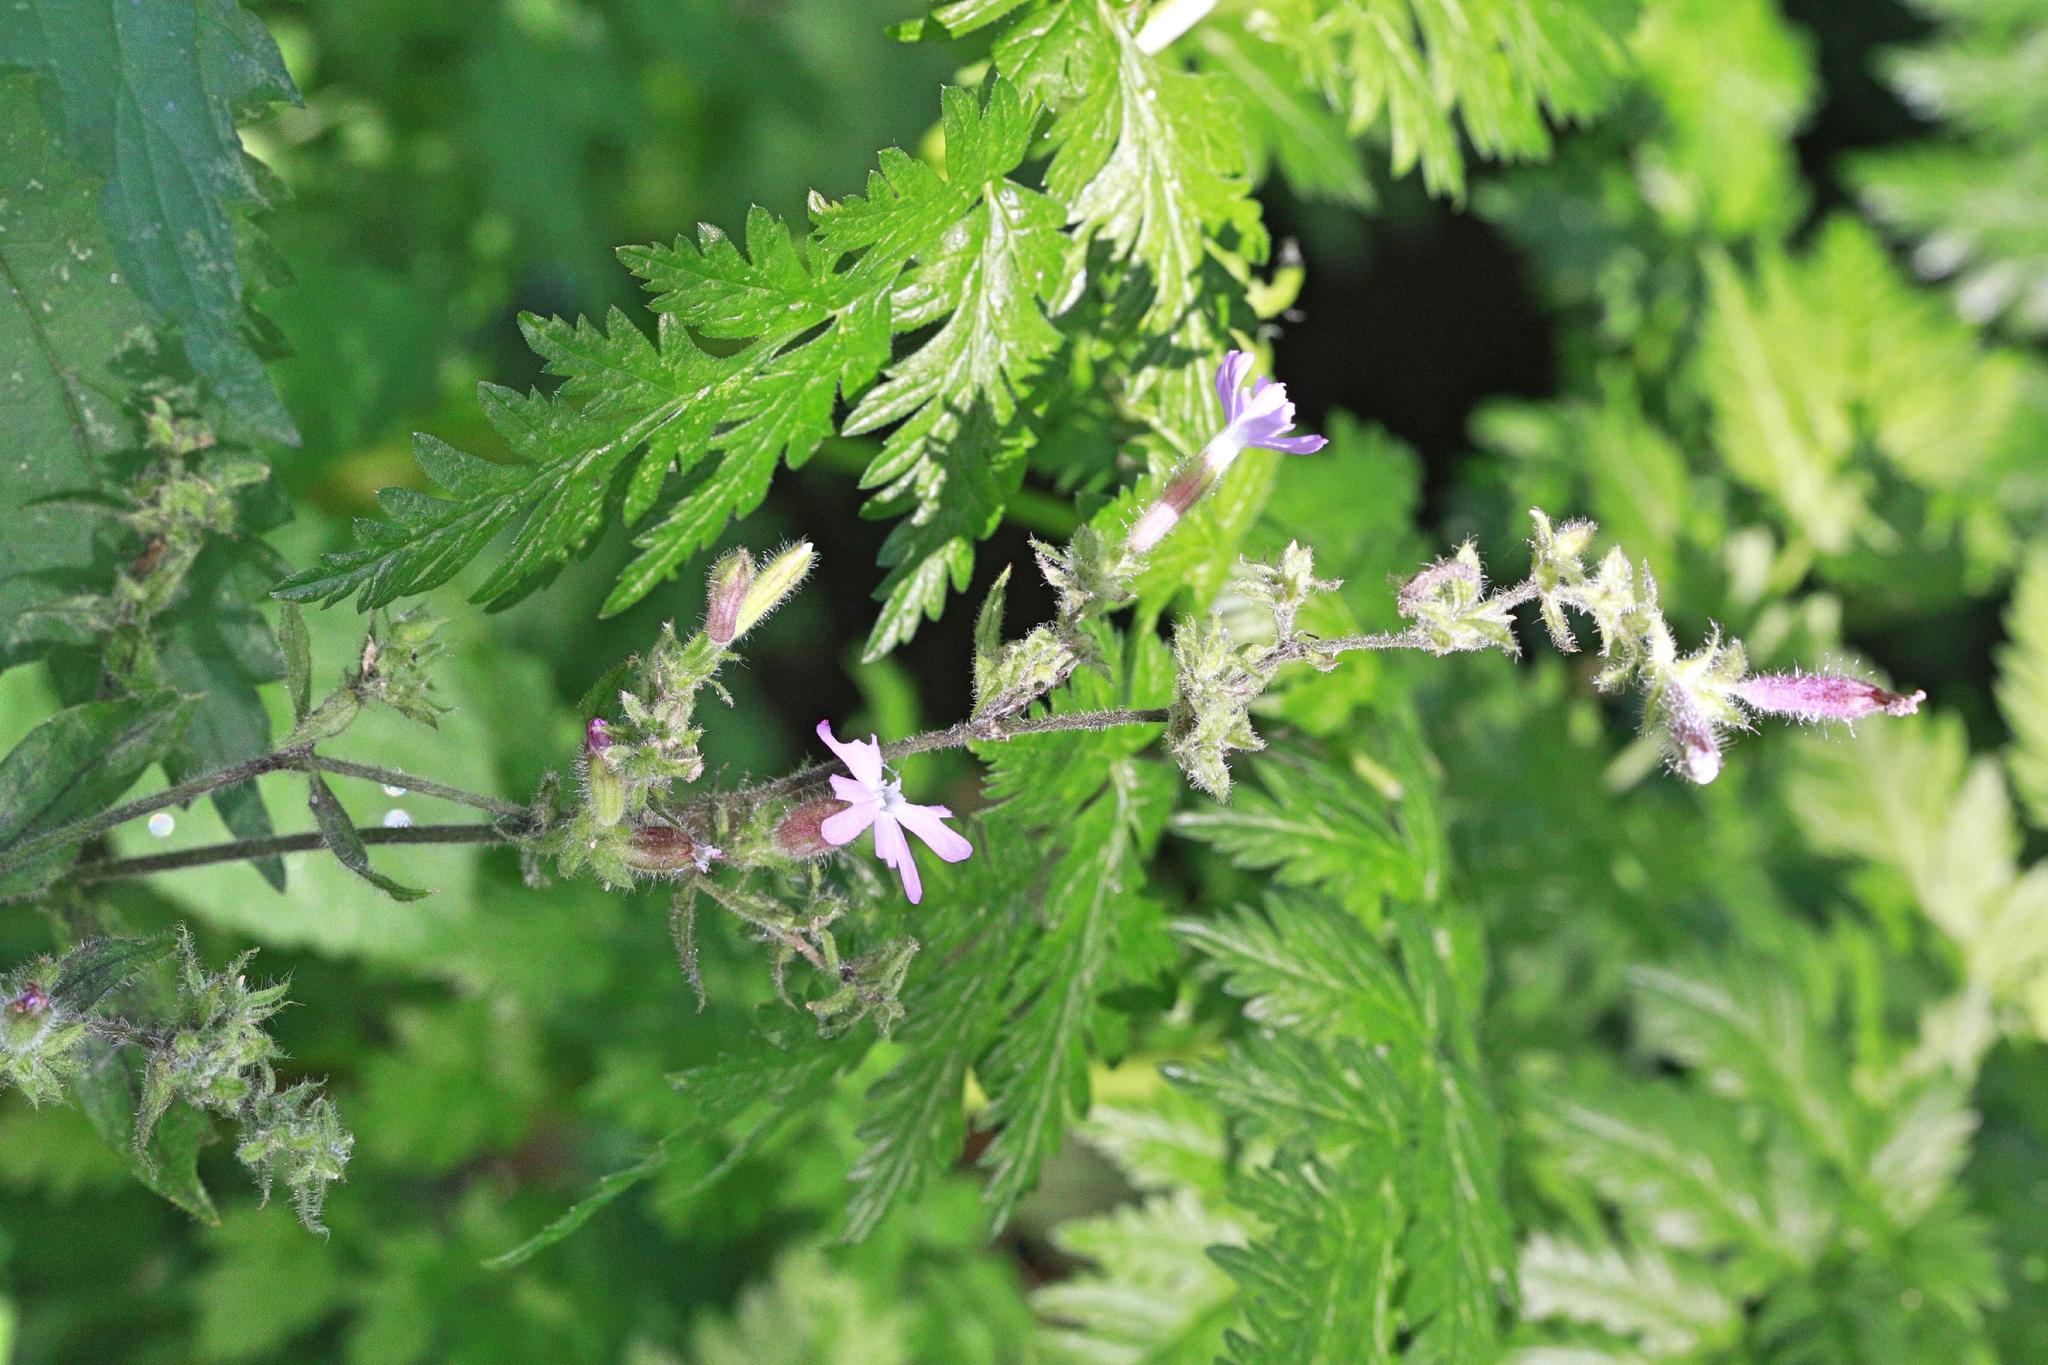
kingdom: Plantae
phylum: Tracheophyta
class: Magnoliopsida
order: Caryophyllales
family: Caryophyllaceae
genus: Silene
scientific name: Silene dioica
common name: Red campion
